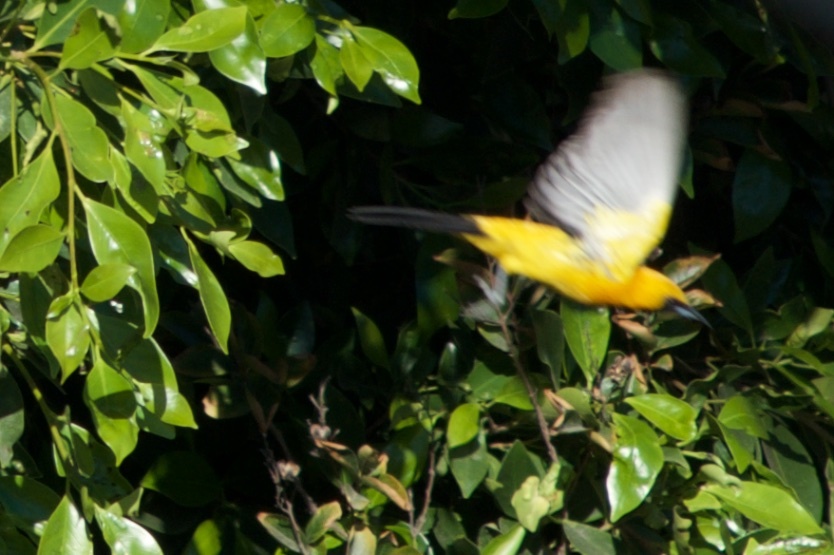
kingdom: Animalia
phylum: Chordata
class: Aves
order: Passeriformes
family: Icteridae
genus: Icterus
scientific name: Icterus cucullatus
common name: Hooded oriole
